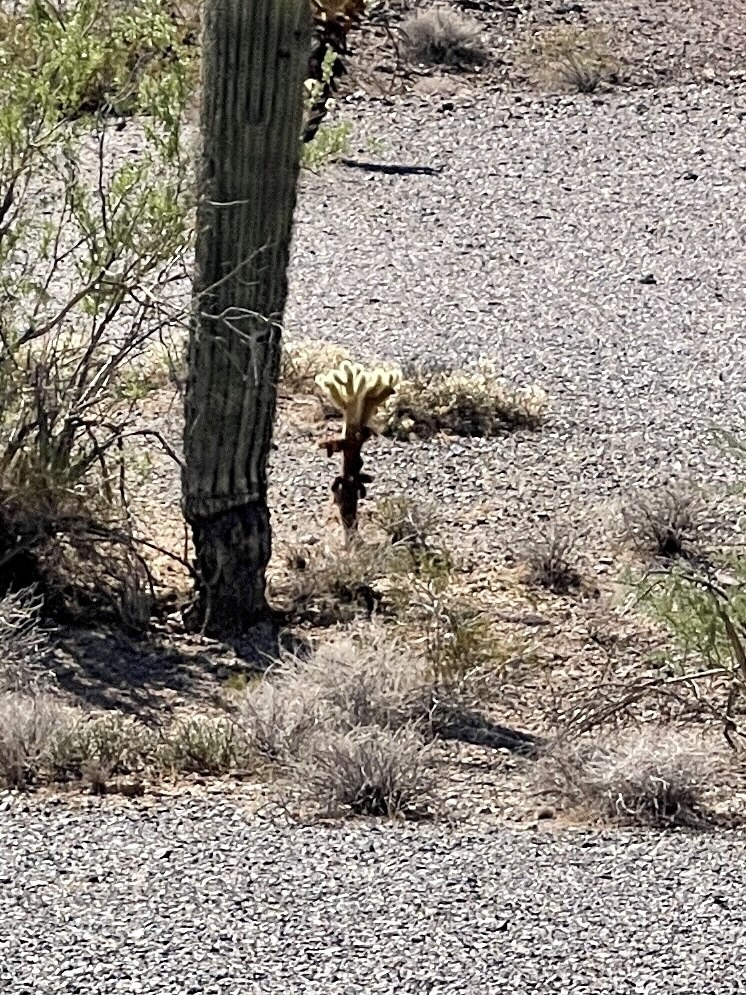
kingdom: Plantae
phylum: Tracheophyta
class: Magnoliopsida
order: Caryophyllales
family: Cactaceae
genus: Cylindropuntia
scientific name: Cylindropuntia fosbergii
